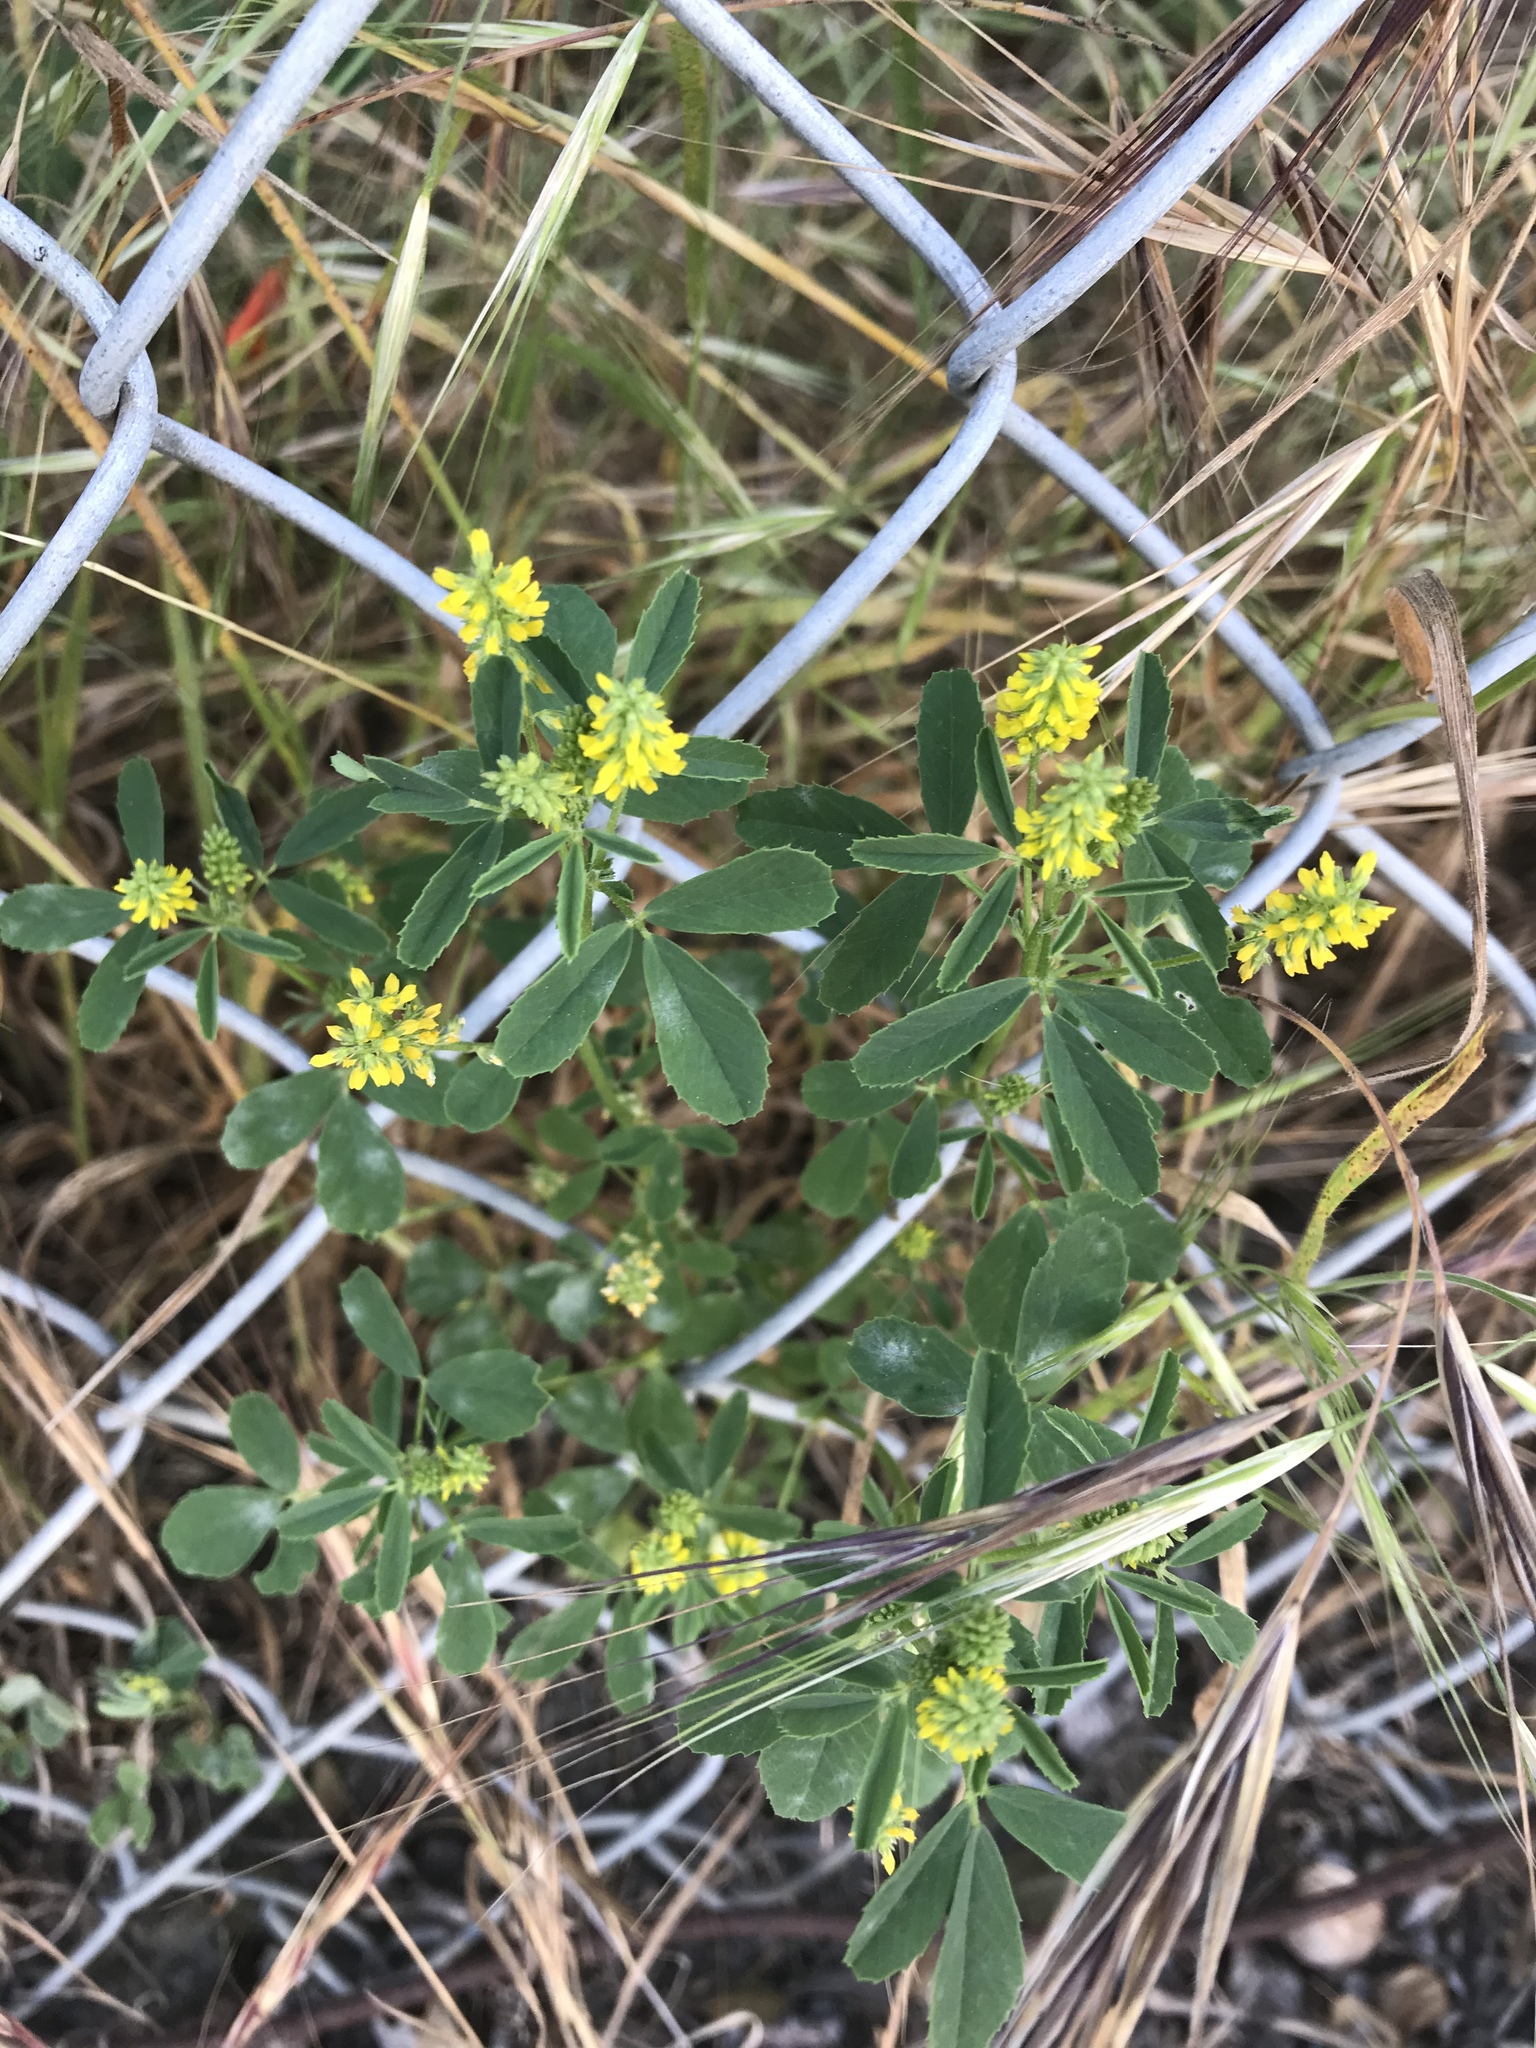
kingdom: Plantae
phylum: Tracheophyta
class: Magnoliopsida
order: Fabales
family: Fabaceae
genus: Melilotus
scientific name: Melilotus indicus
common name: Small melilot
